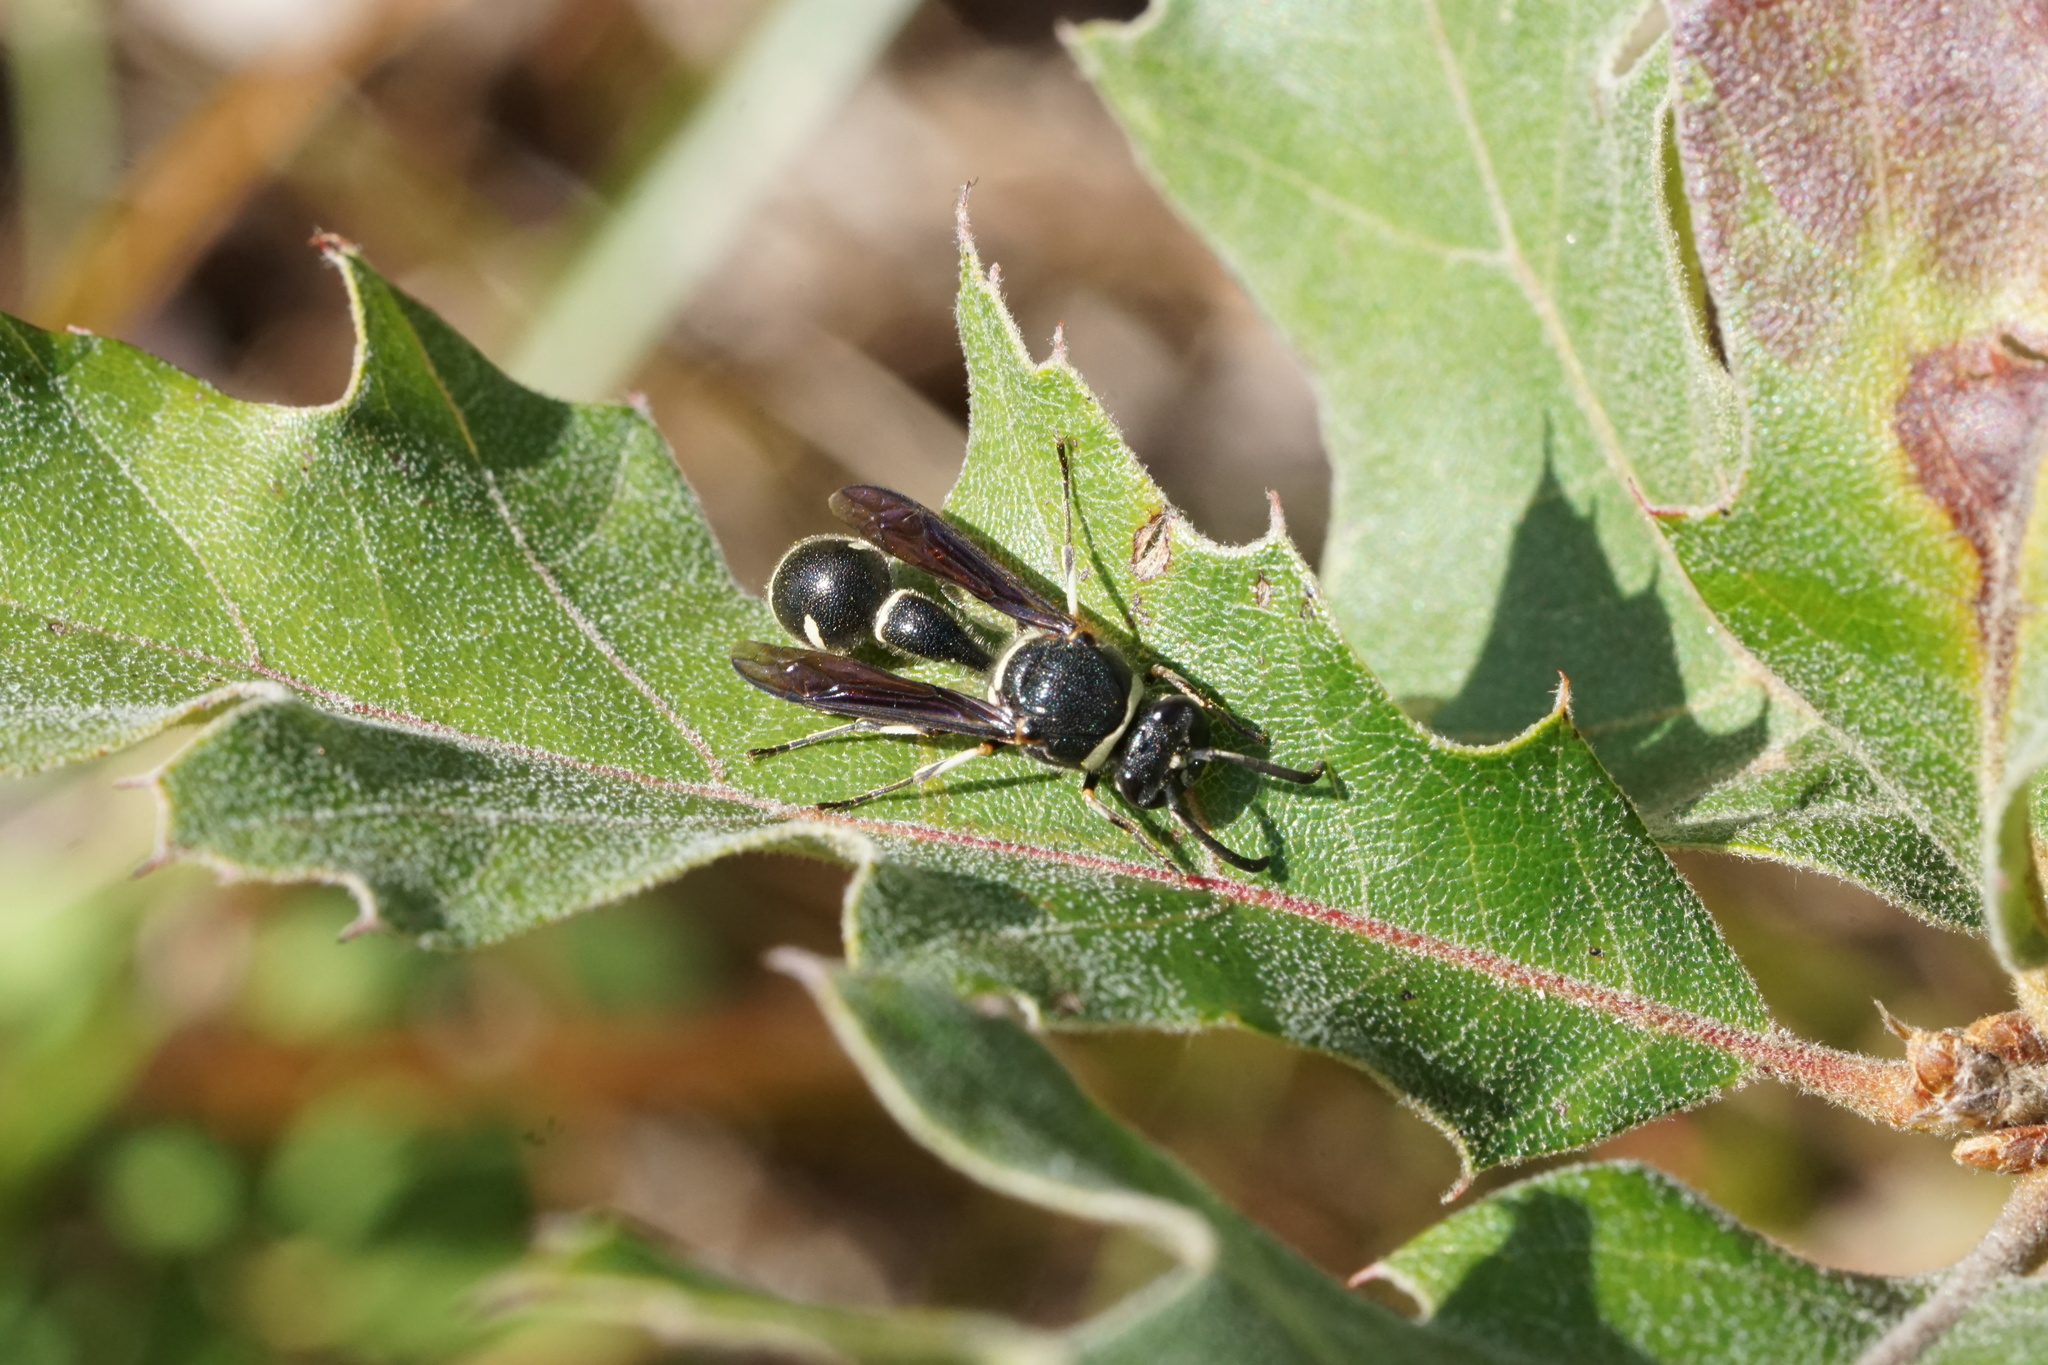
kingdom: Animalia
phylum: Arthropoda
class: Insecta
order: Hymenoptera
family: Vespidae
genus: Eumenes
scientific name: Eumenes fraternus
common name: Fraternal potter wasp
